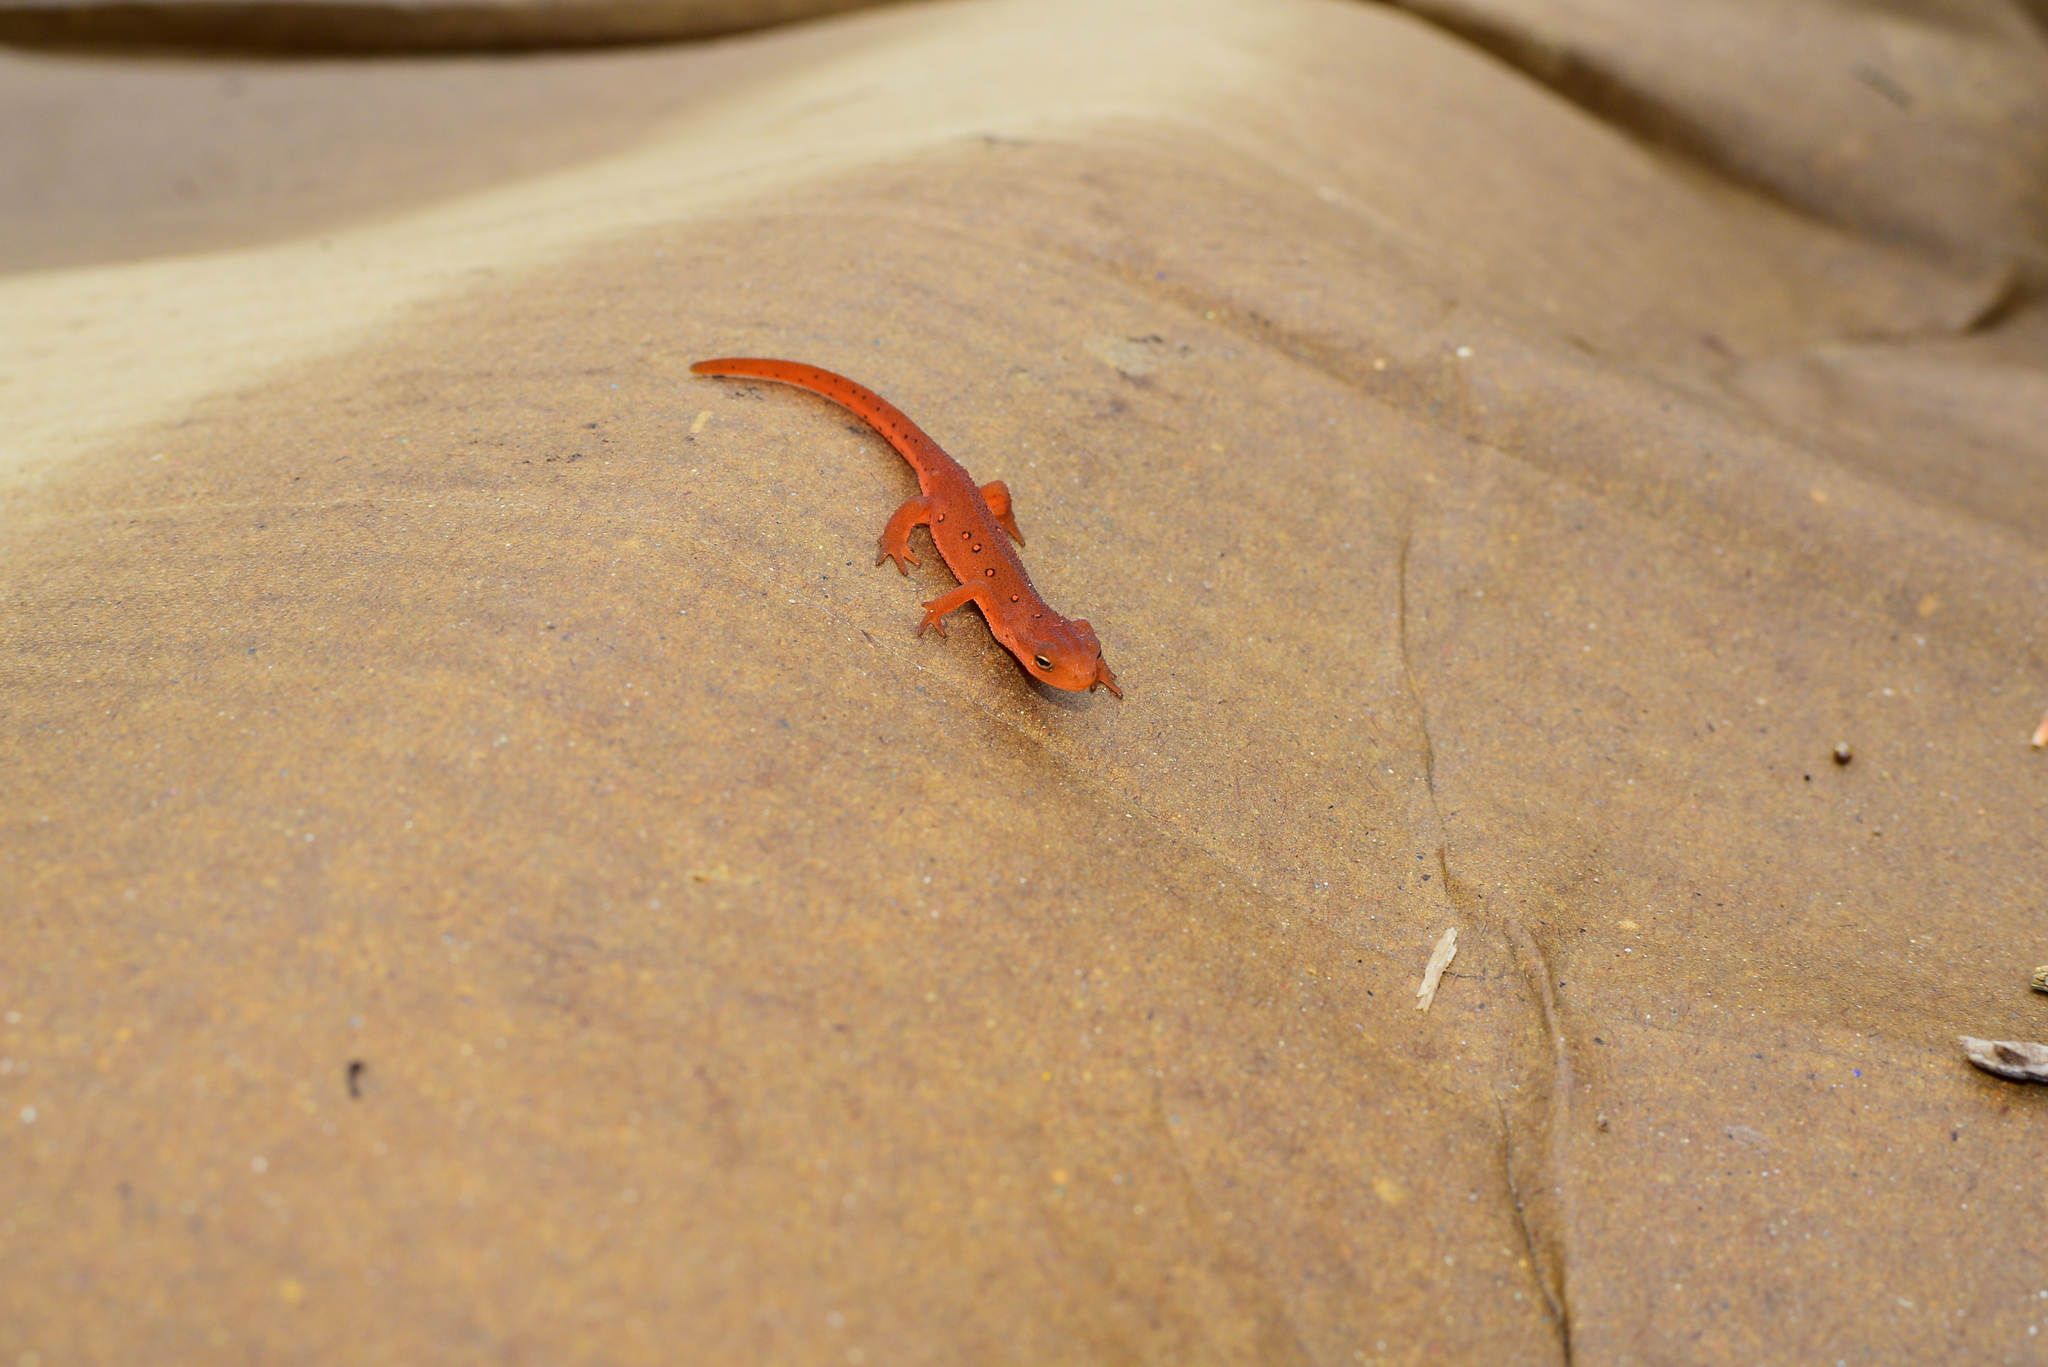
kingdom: Animalia
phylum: Chordata
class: Amphibia
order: Caudata
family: Salamandridae
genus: Notophthalmus
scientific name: Notophthalmus viridescens
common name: Eastern newt
